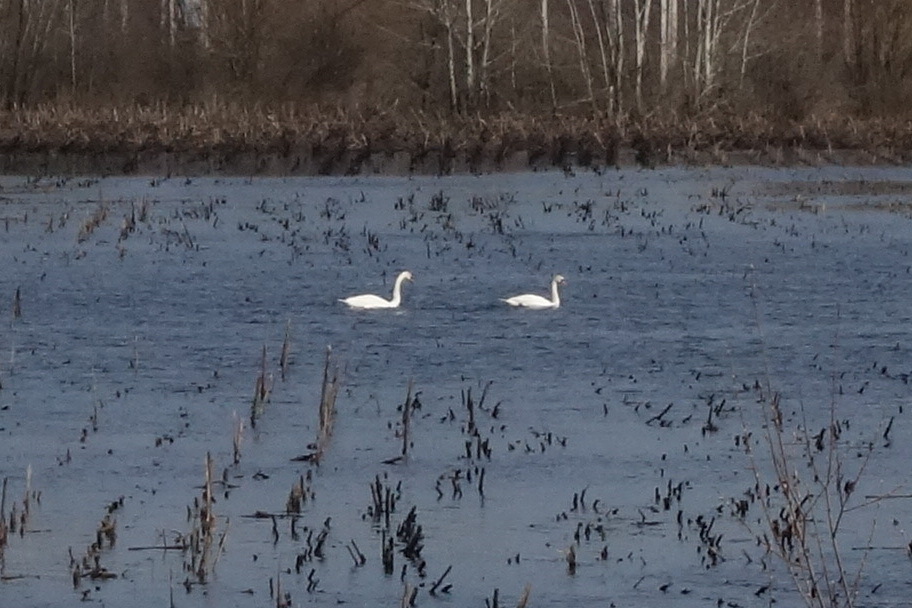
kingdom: Animalia
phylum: Chordata
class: Aves
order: Anseriformes
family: Anatidae
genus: Cygnus
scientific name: Cygnus olor
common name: Mute swan
